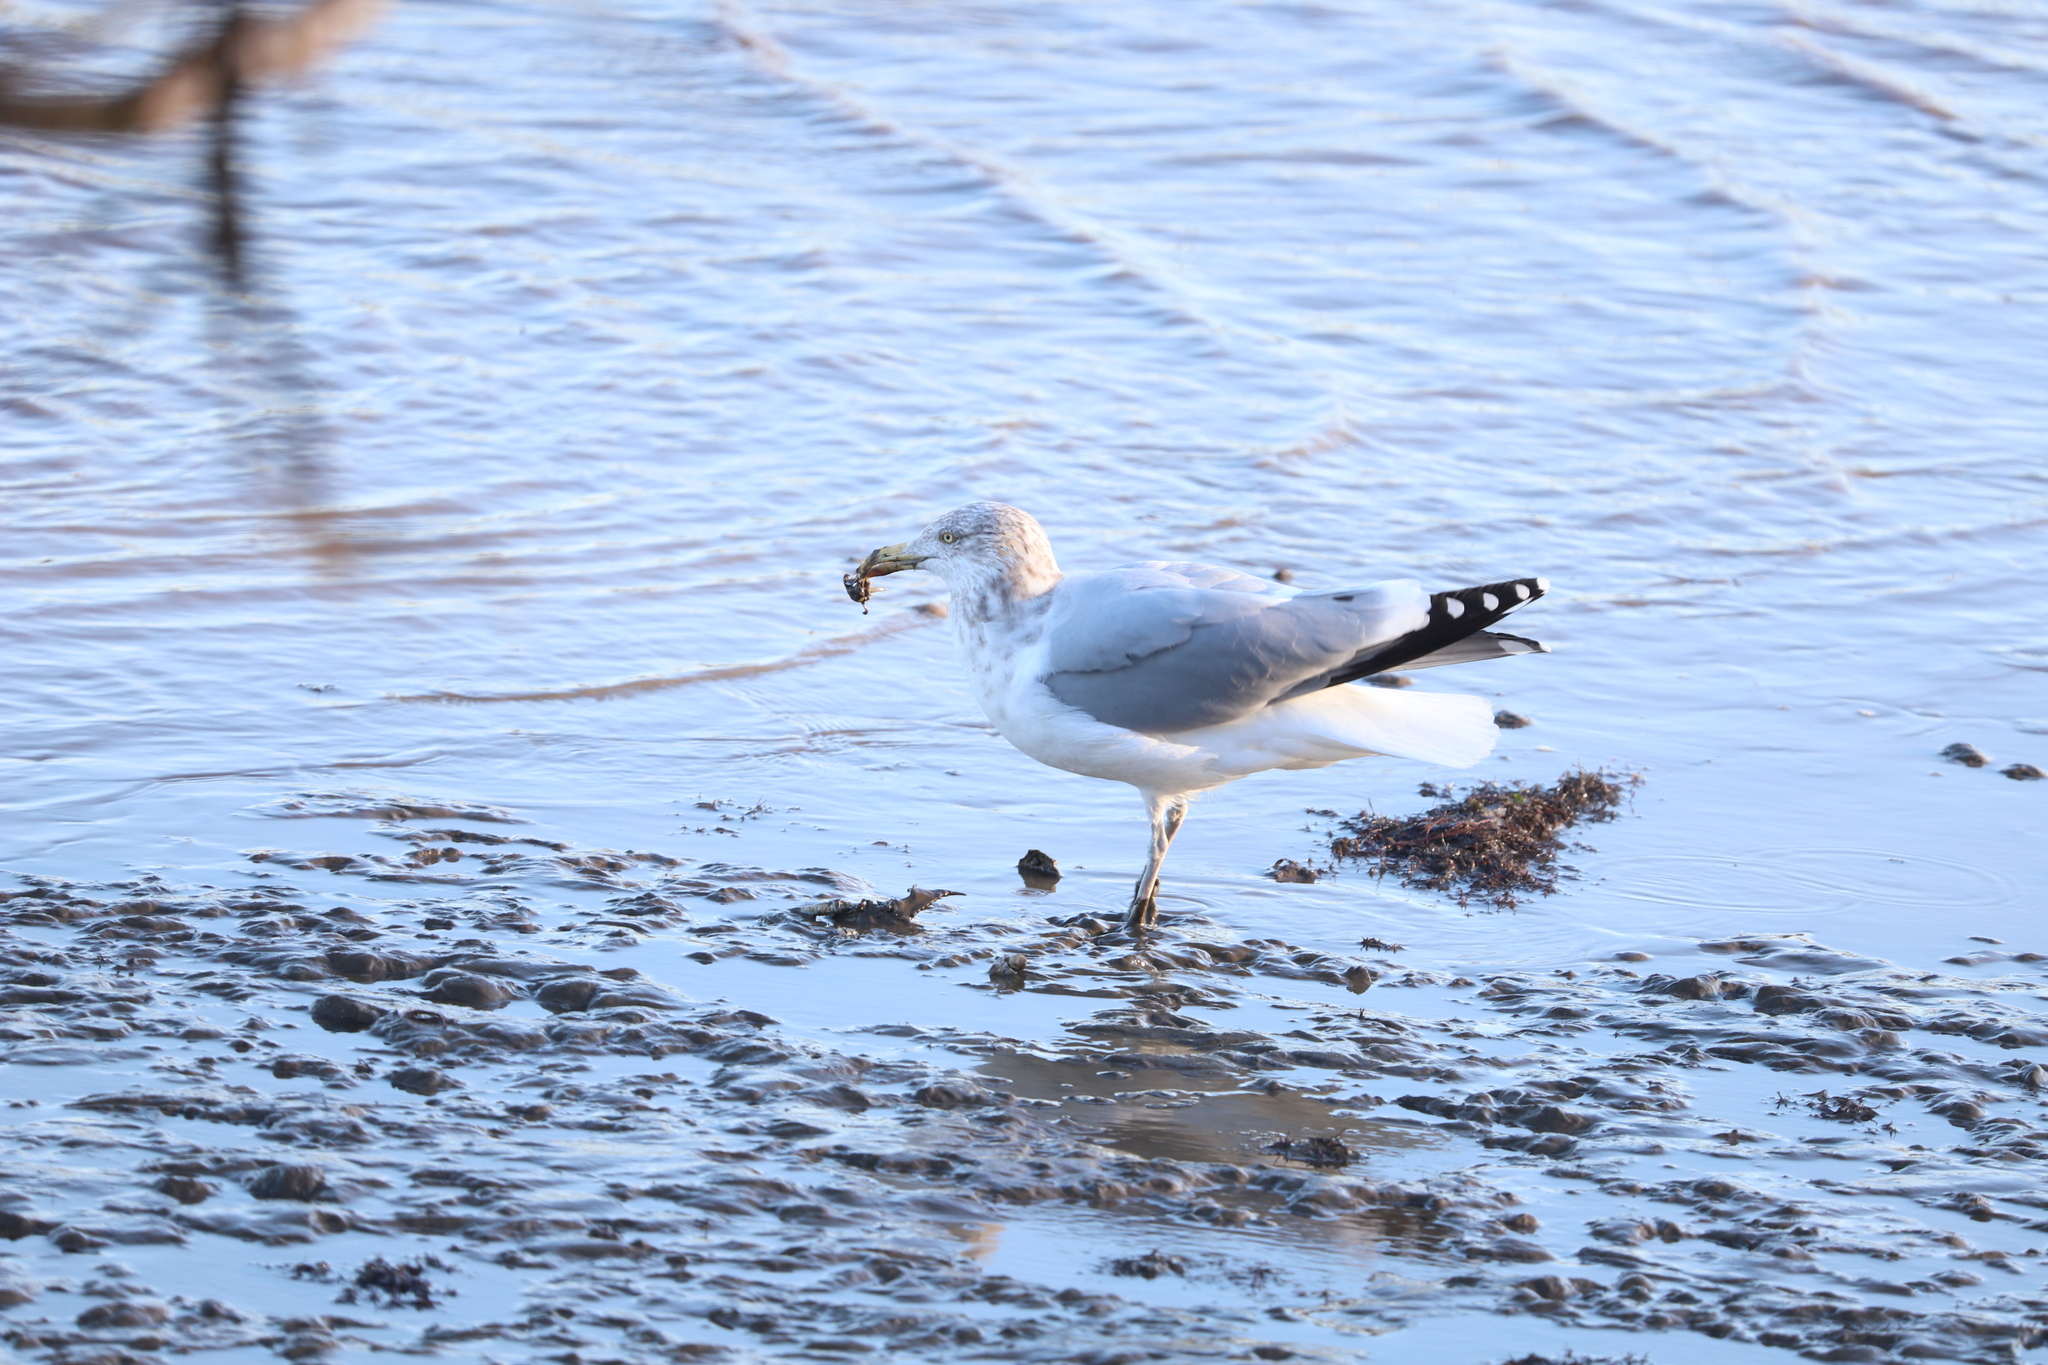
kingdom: Animalia
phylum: Chordata
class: Aves
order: Charadriiformes
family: Laridae
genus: Larus
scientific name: Larus argentatus
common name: Herring gull
